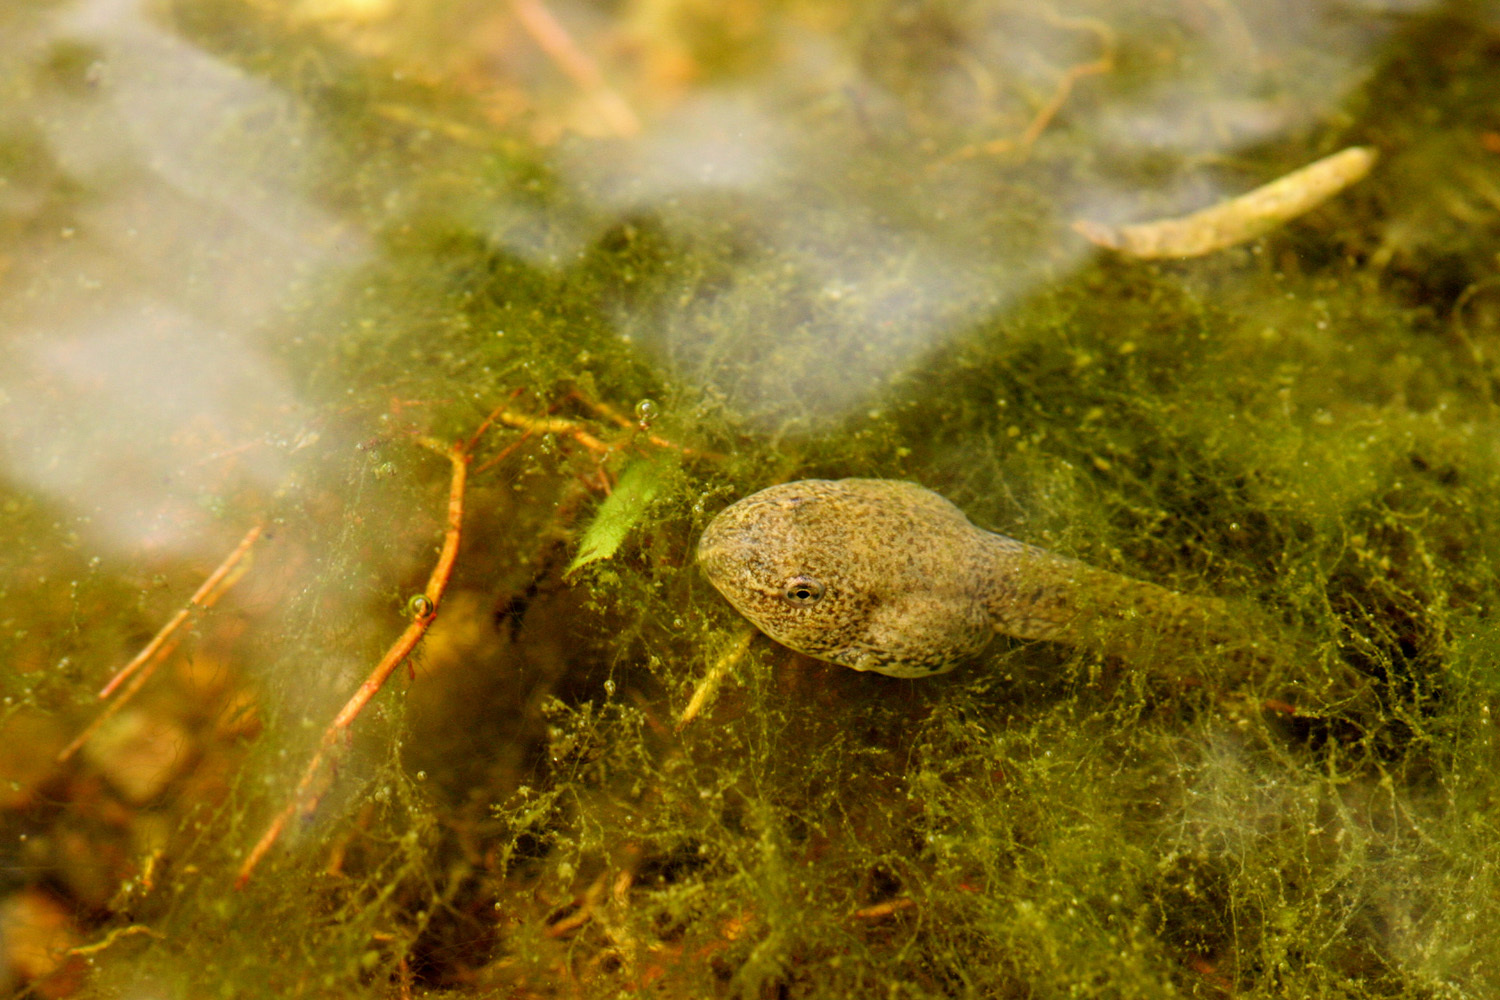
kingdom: Animalia
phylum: Chordata
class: Amphibia
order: Anura
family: Ranidae
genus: Lithobates
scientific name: Lithobates berlandieri
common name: Rio grande leopard frog
